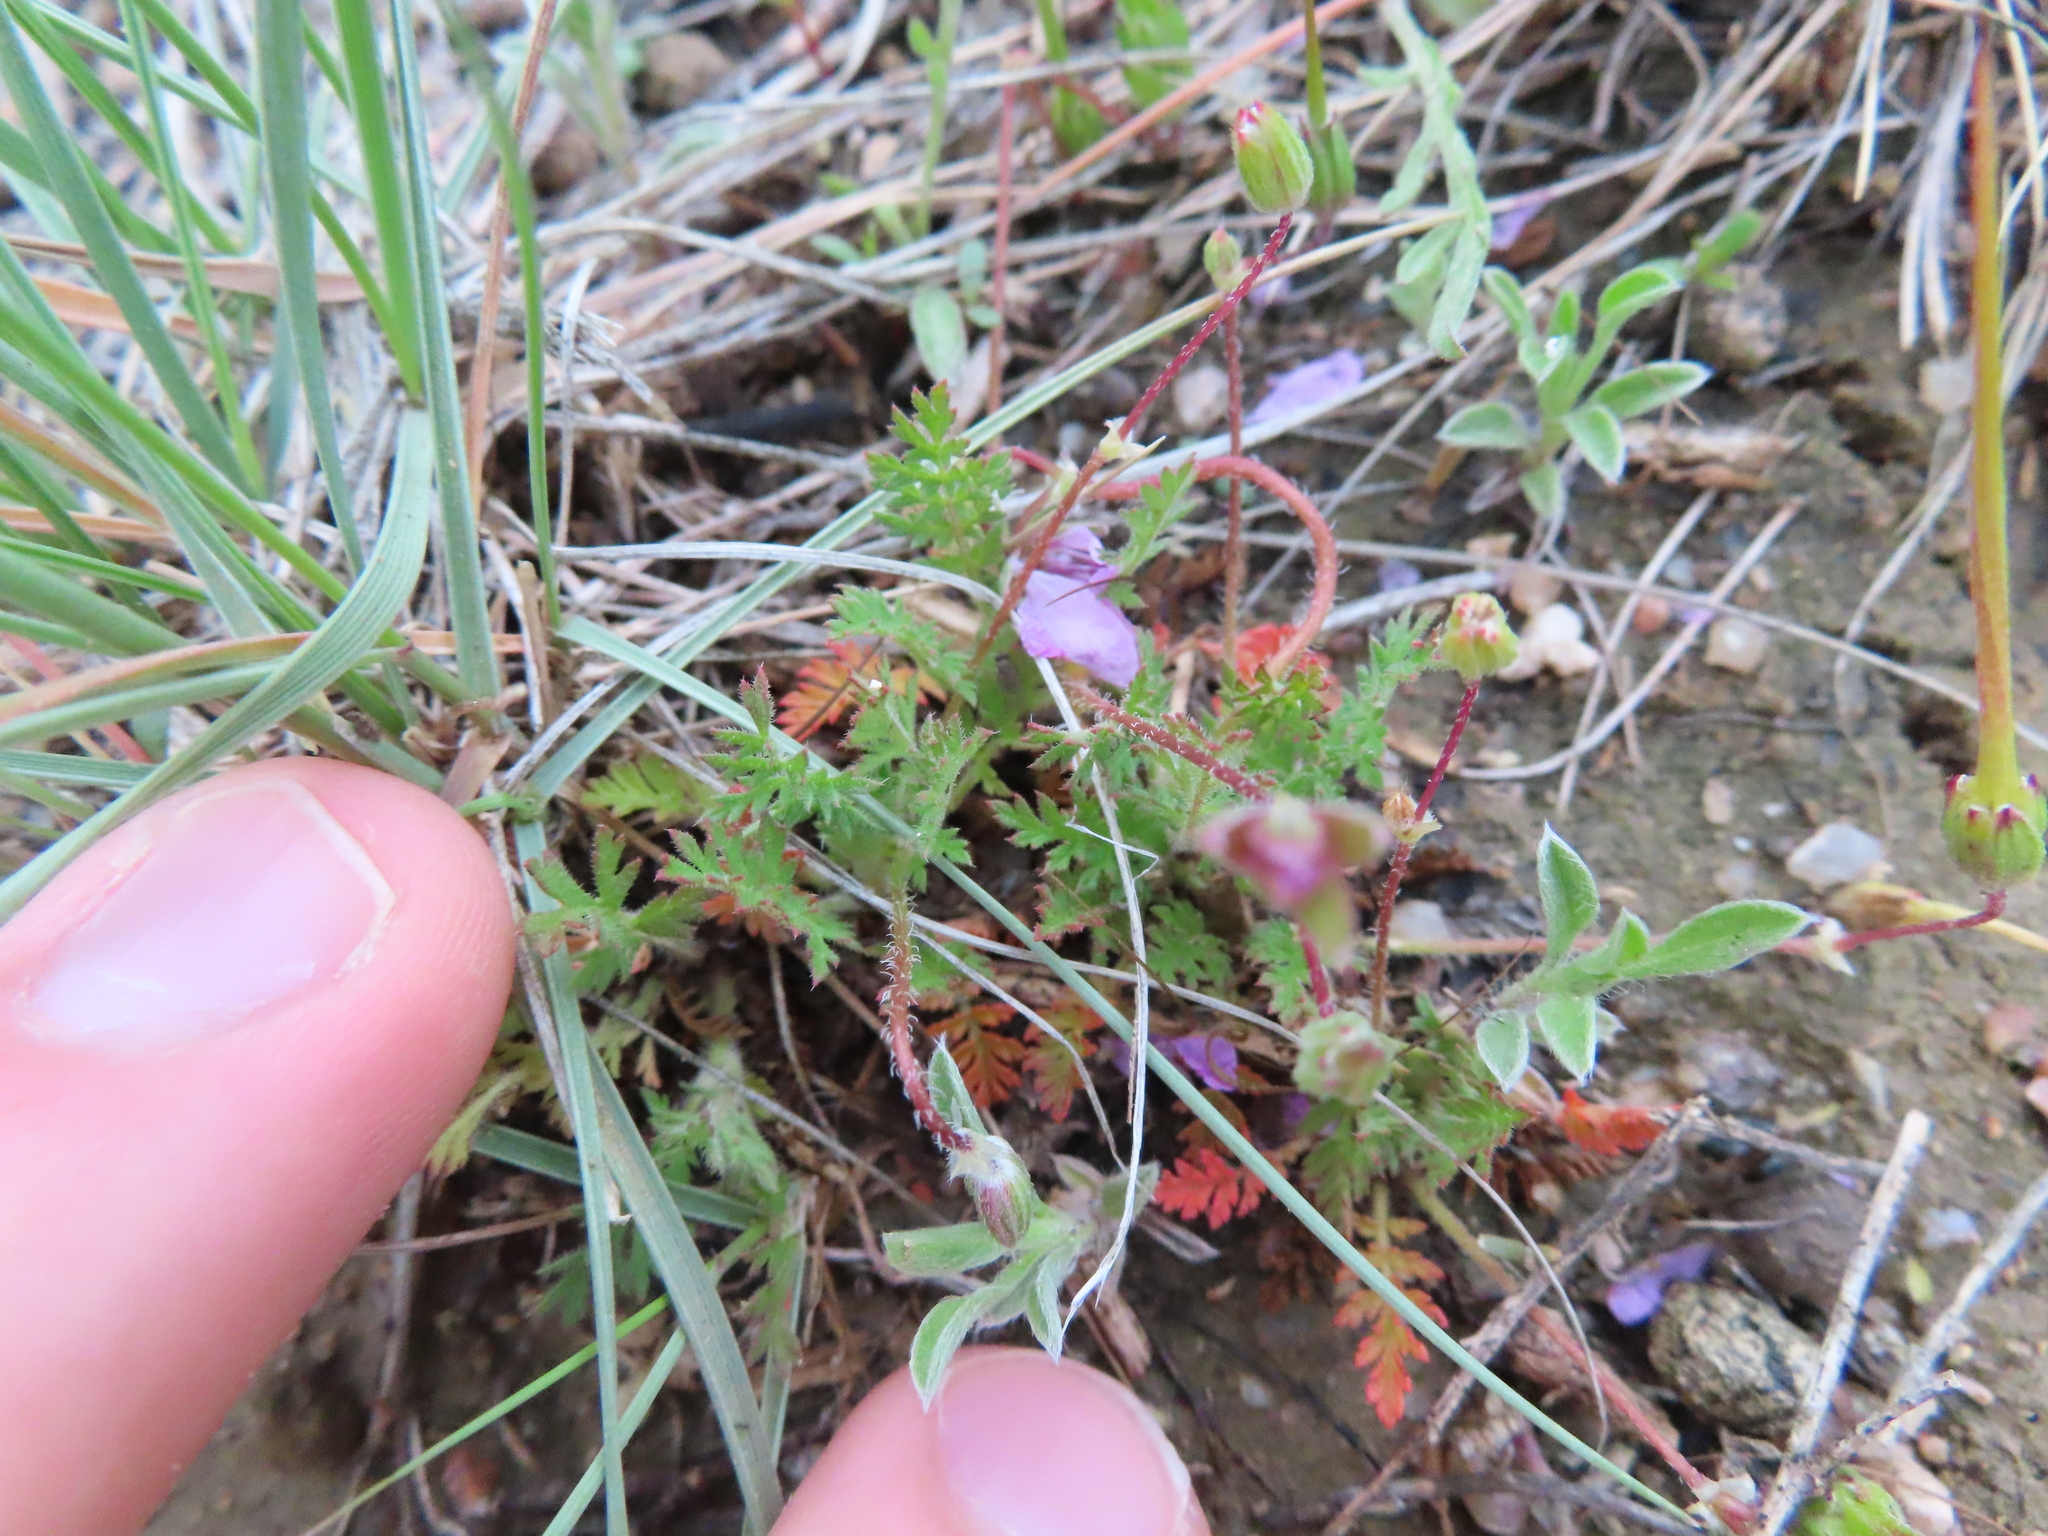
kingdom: Plantae
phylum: Tracheophyta
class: Magnoliopsida
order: Geraniales
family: Geraniaceae
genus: Erodium
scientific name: Erodium cicutarium
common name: Common stork's-bill
